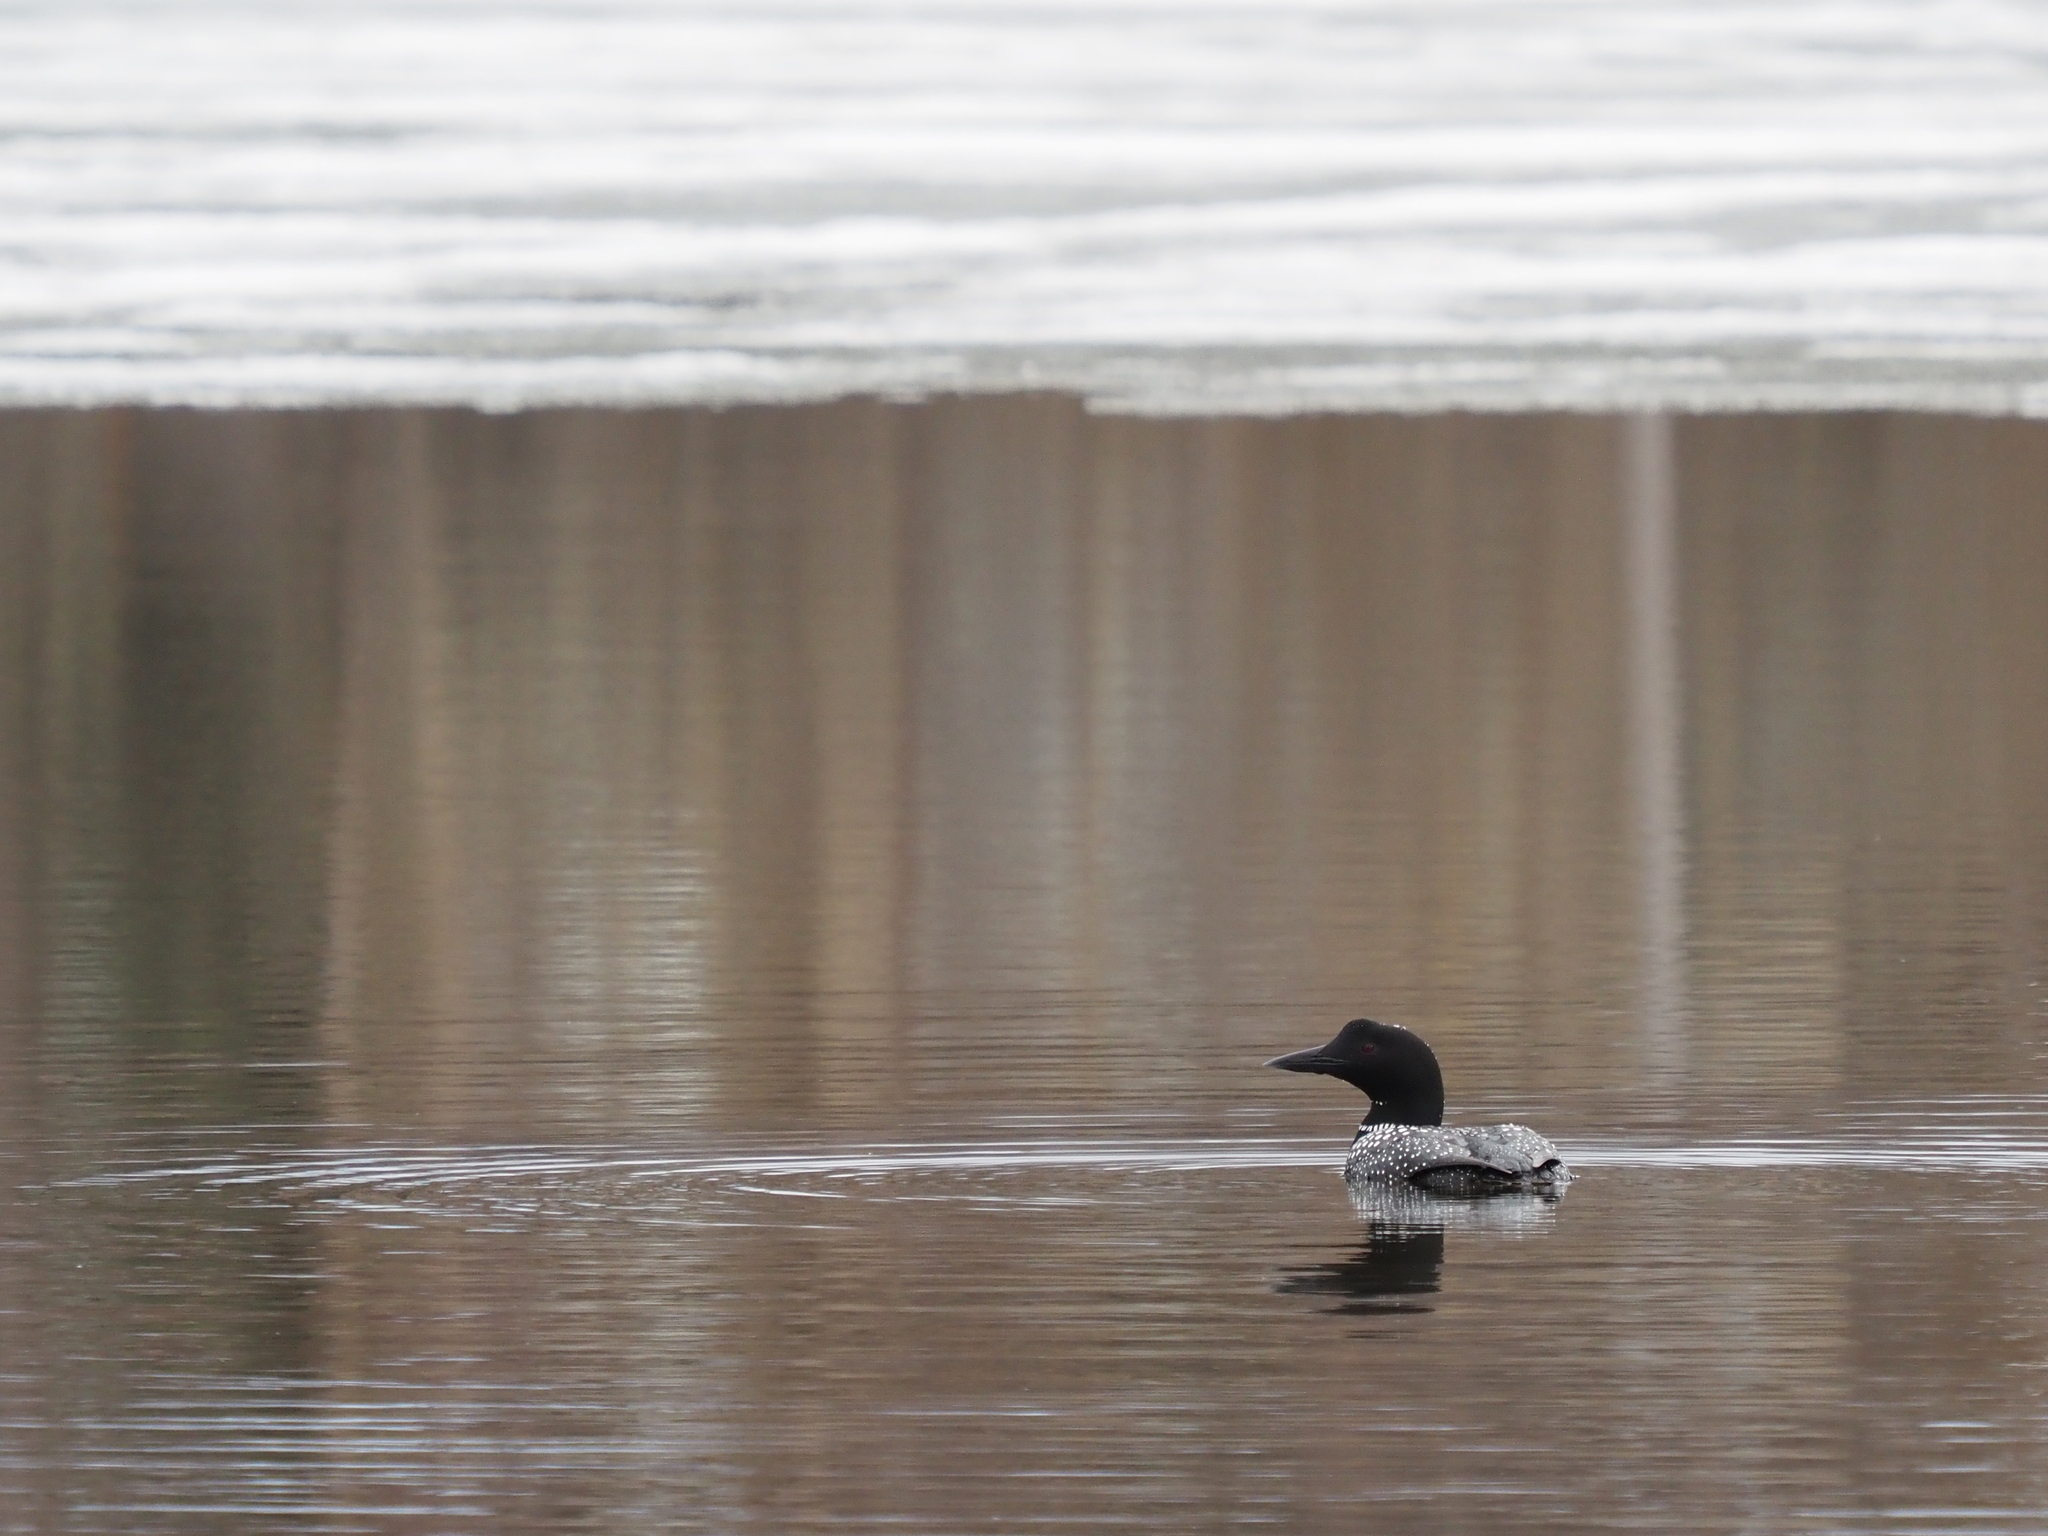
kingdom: Animalia
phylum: Chordata
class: Aves
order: Gaviiformes
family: Gaviidae
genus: Gavia
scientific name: Gavia immer
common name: Common loon
